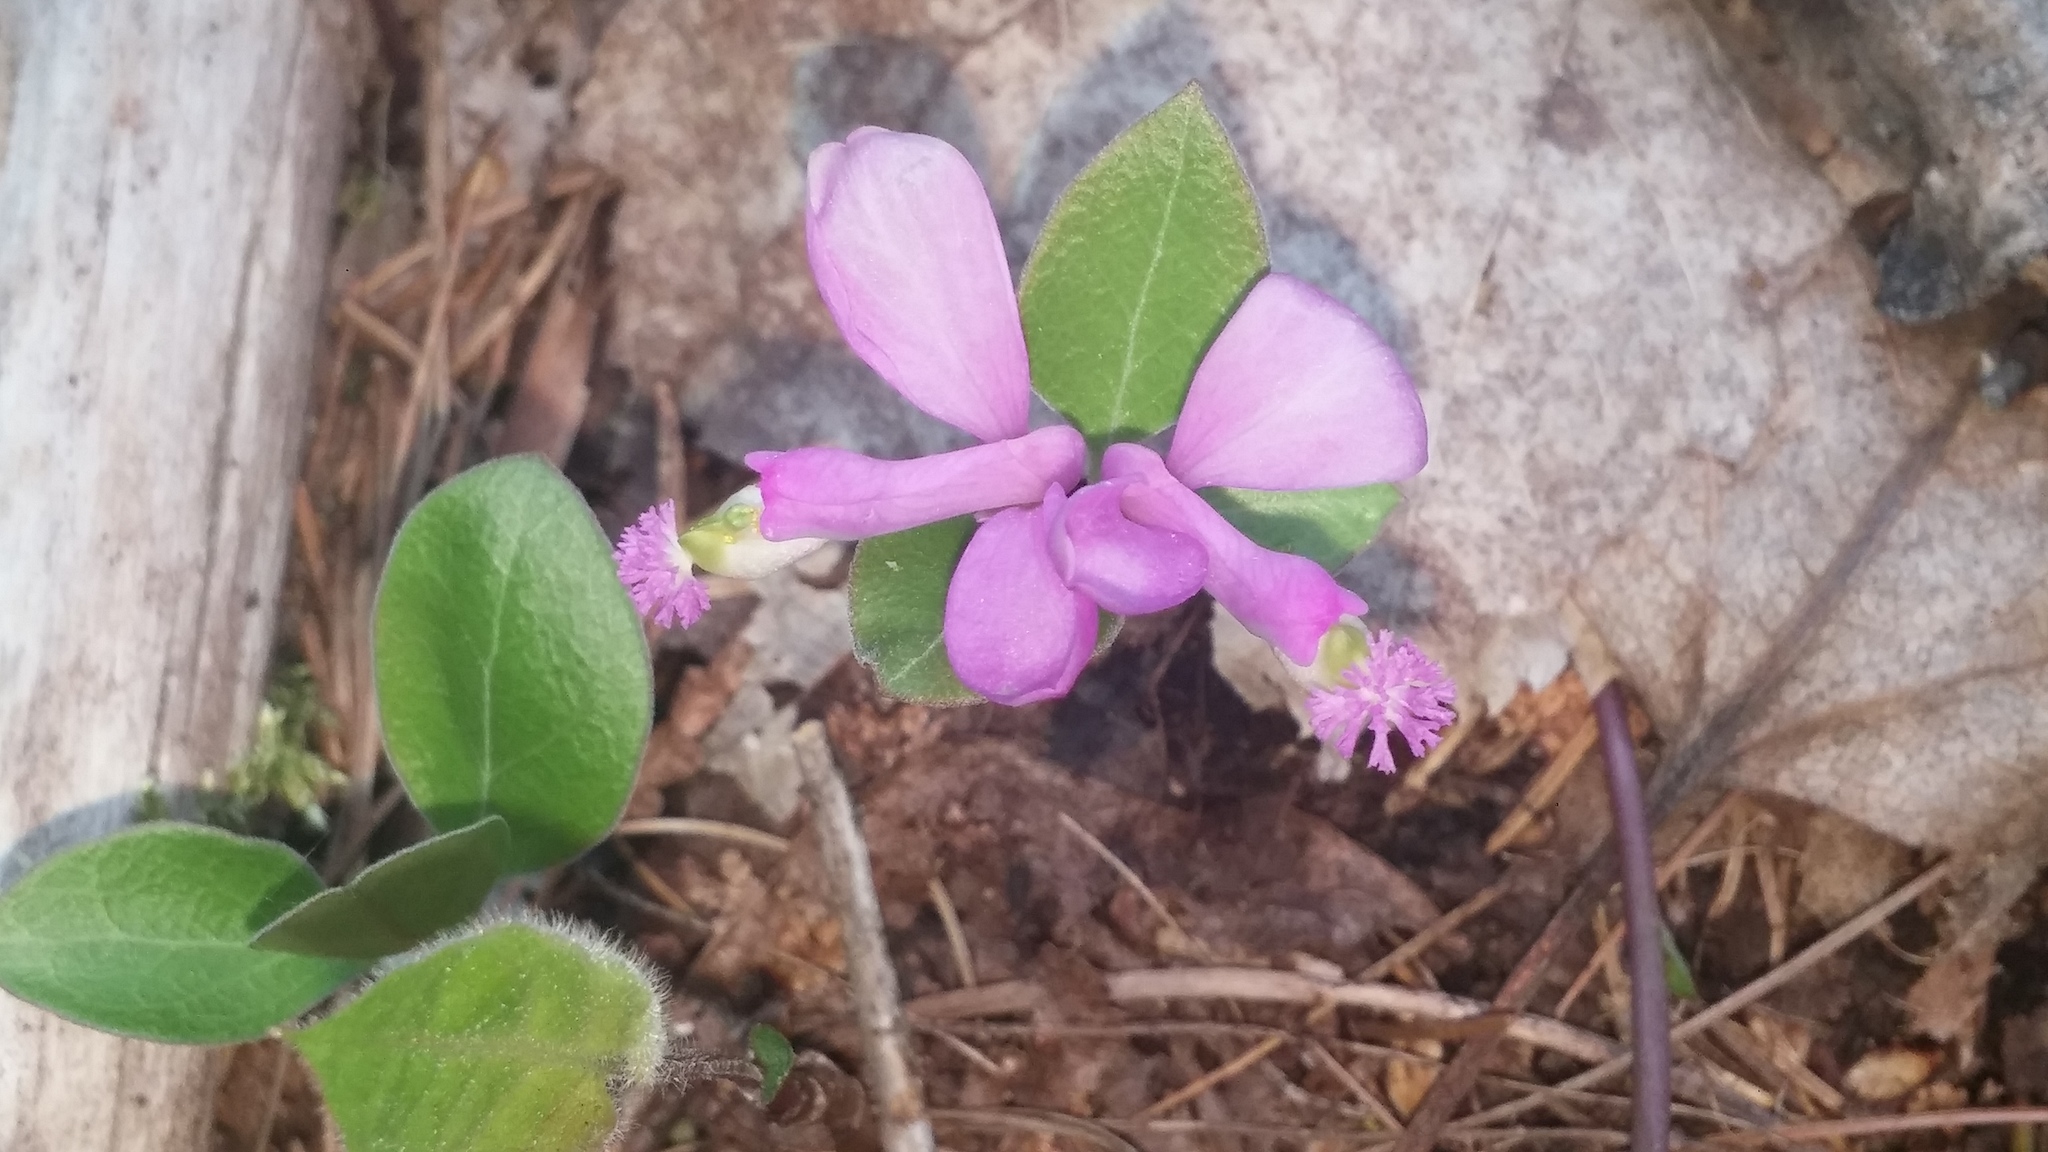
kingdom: Plantae
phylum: Tracheophyta
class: Magnoliopsida
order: Fabales
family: Polygalaceae
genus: Polygaloides
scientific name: Polygaloides paucifolia
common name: Bird-on-the-wing
